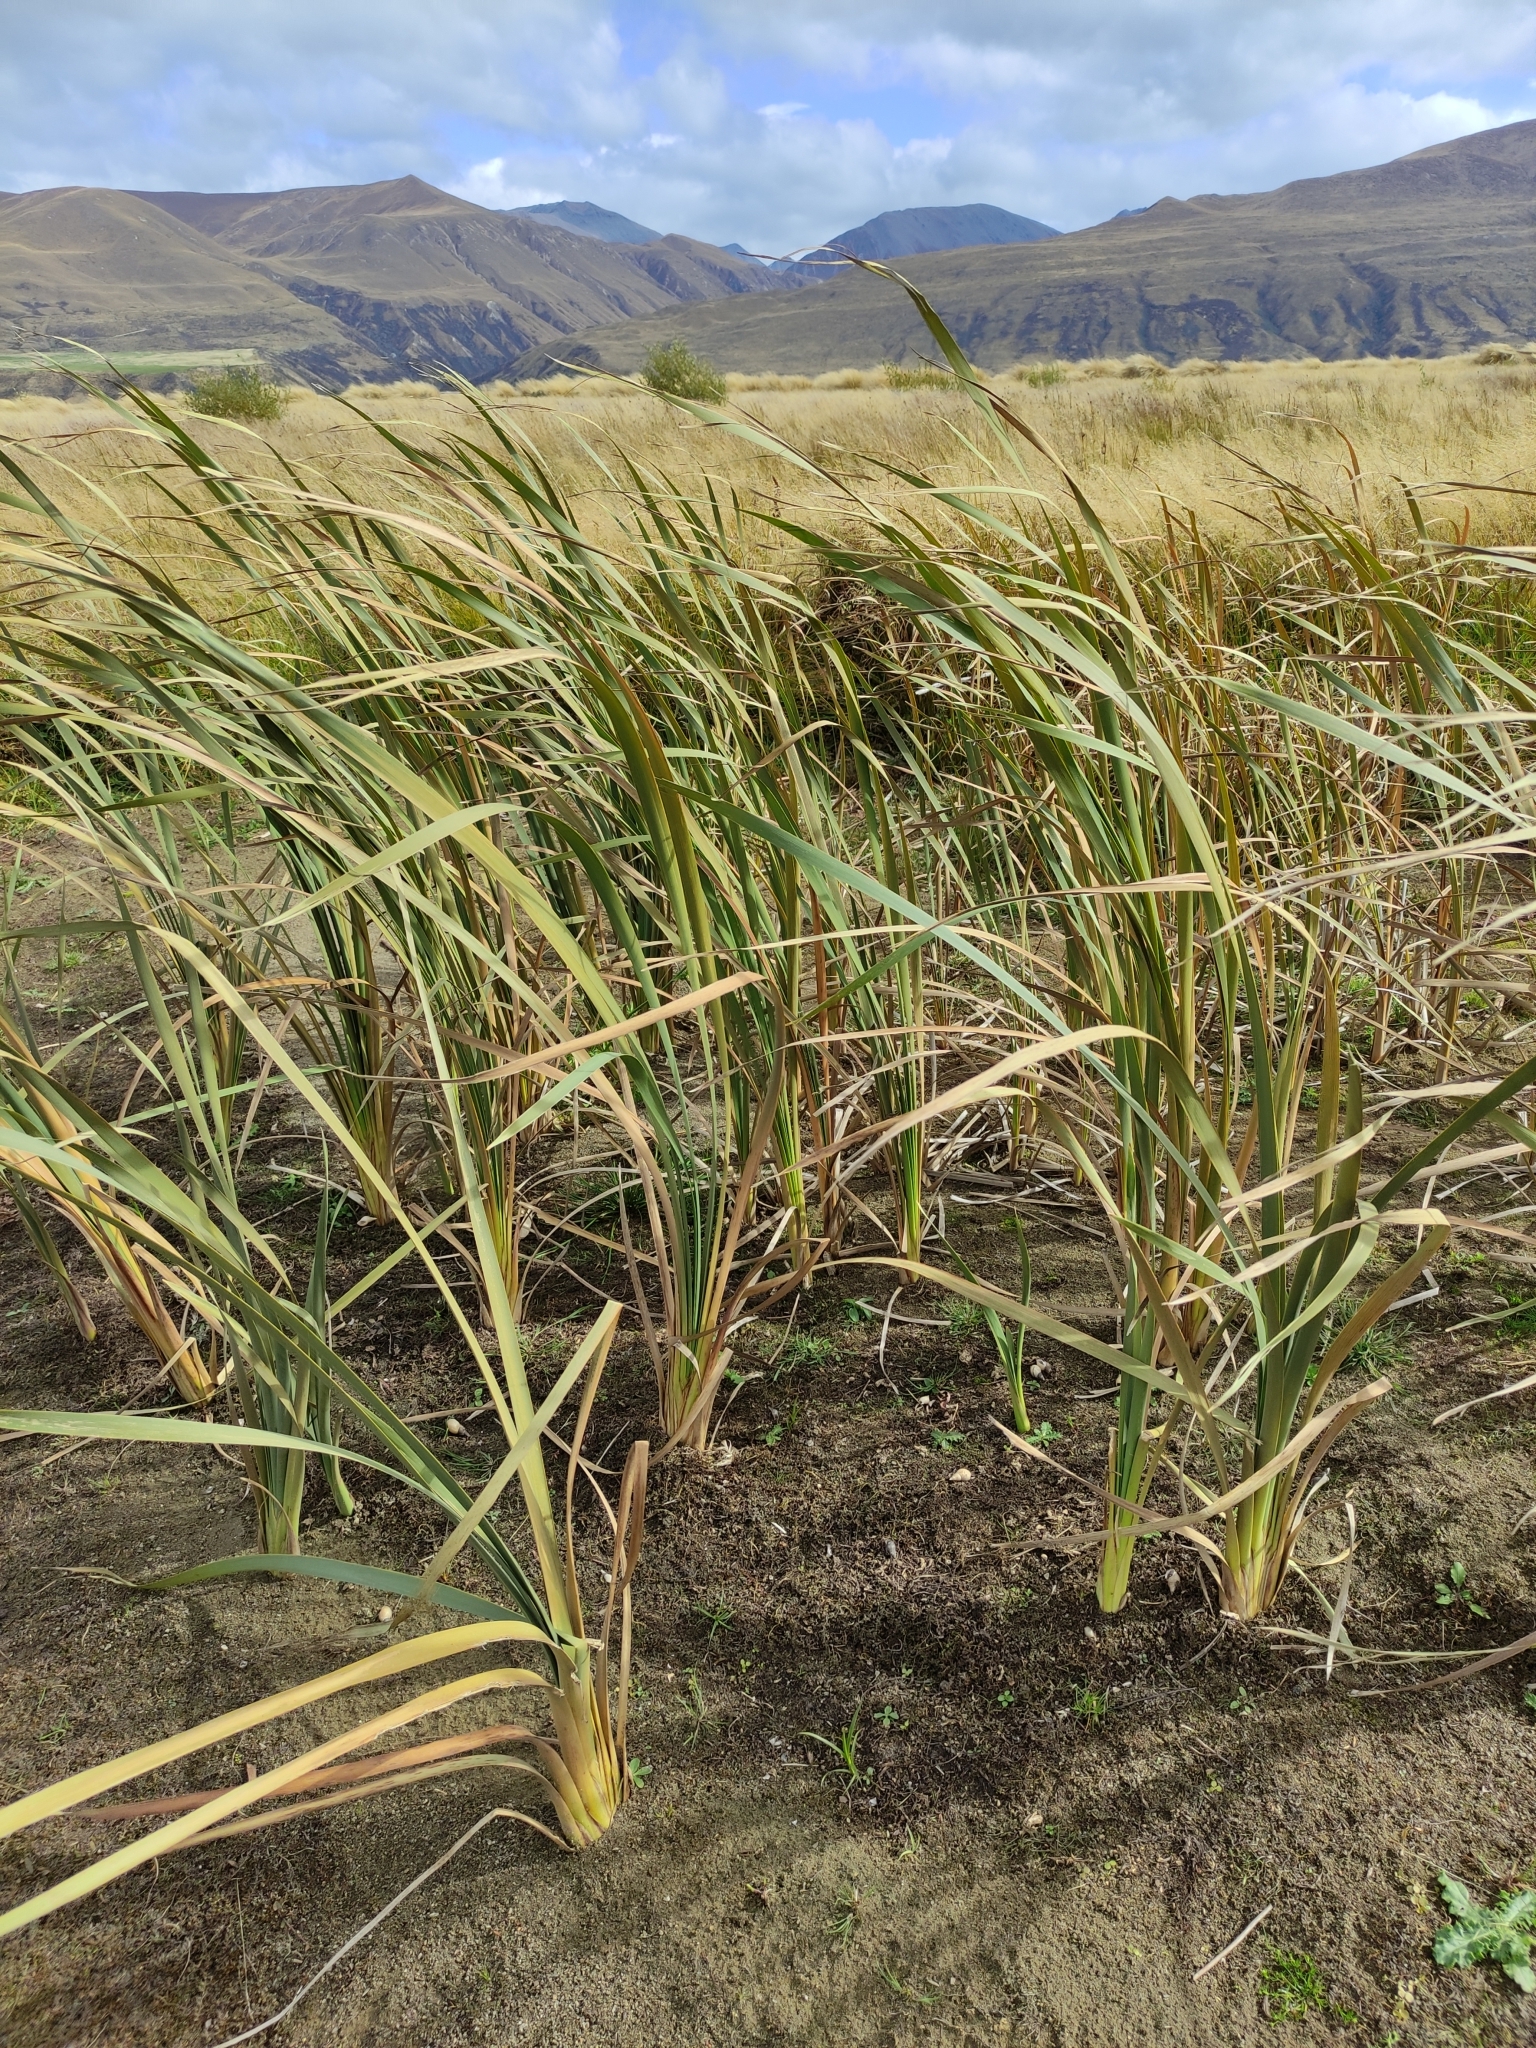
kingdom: Plantae
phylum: Tracheophyta
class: Liliopsida
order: Poales
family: Typhaceae
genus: Typha
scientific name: Typha orientalis
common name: Bullrush
